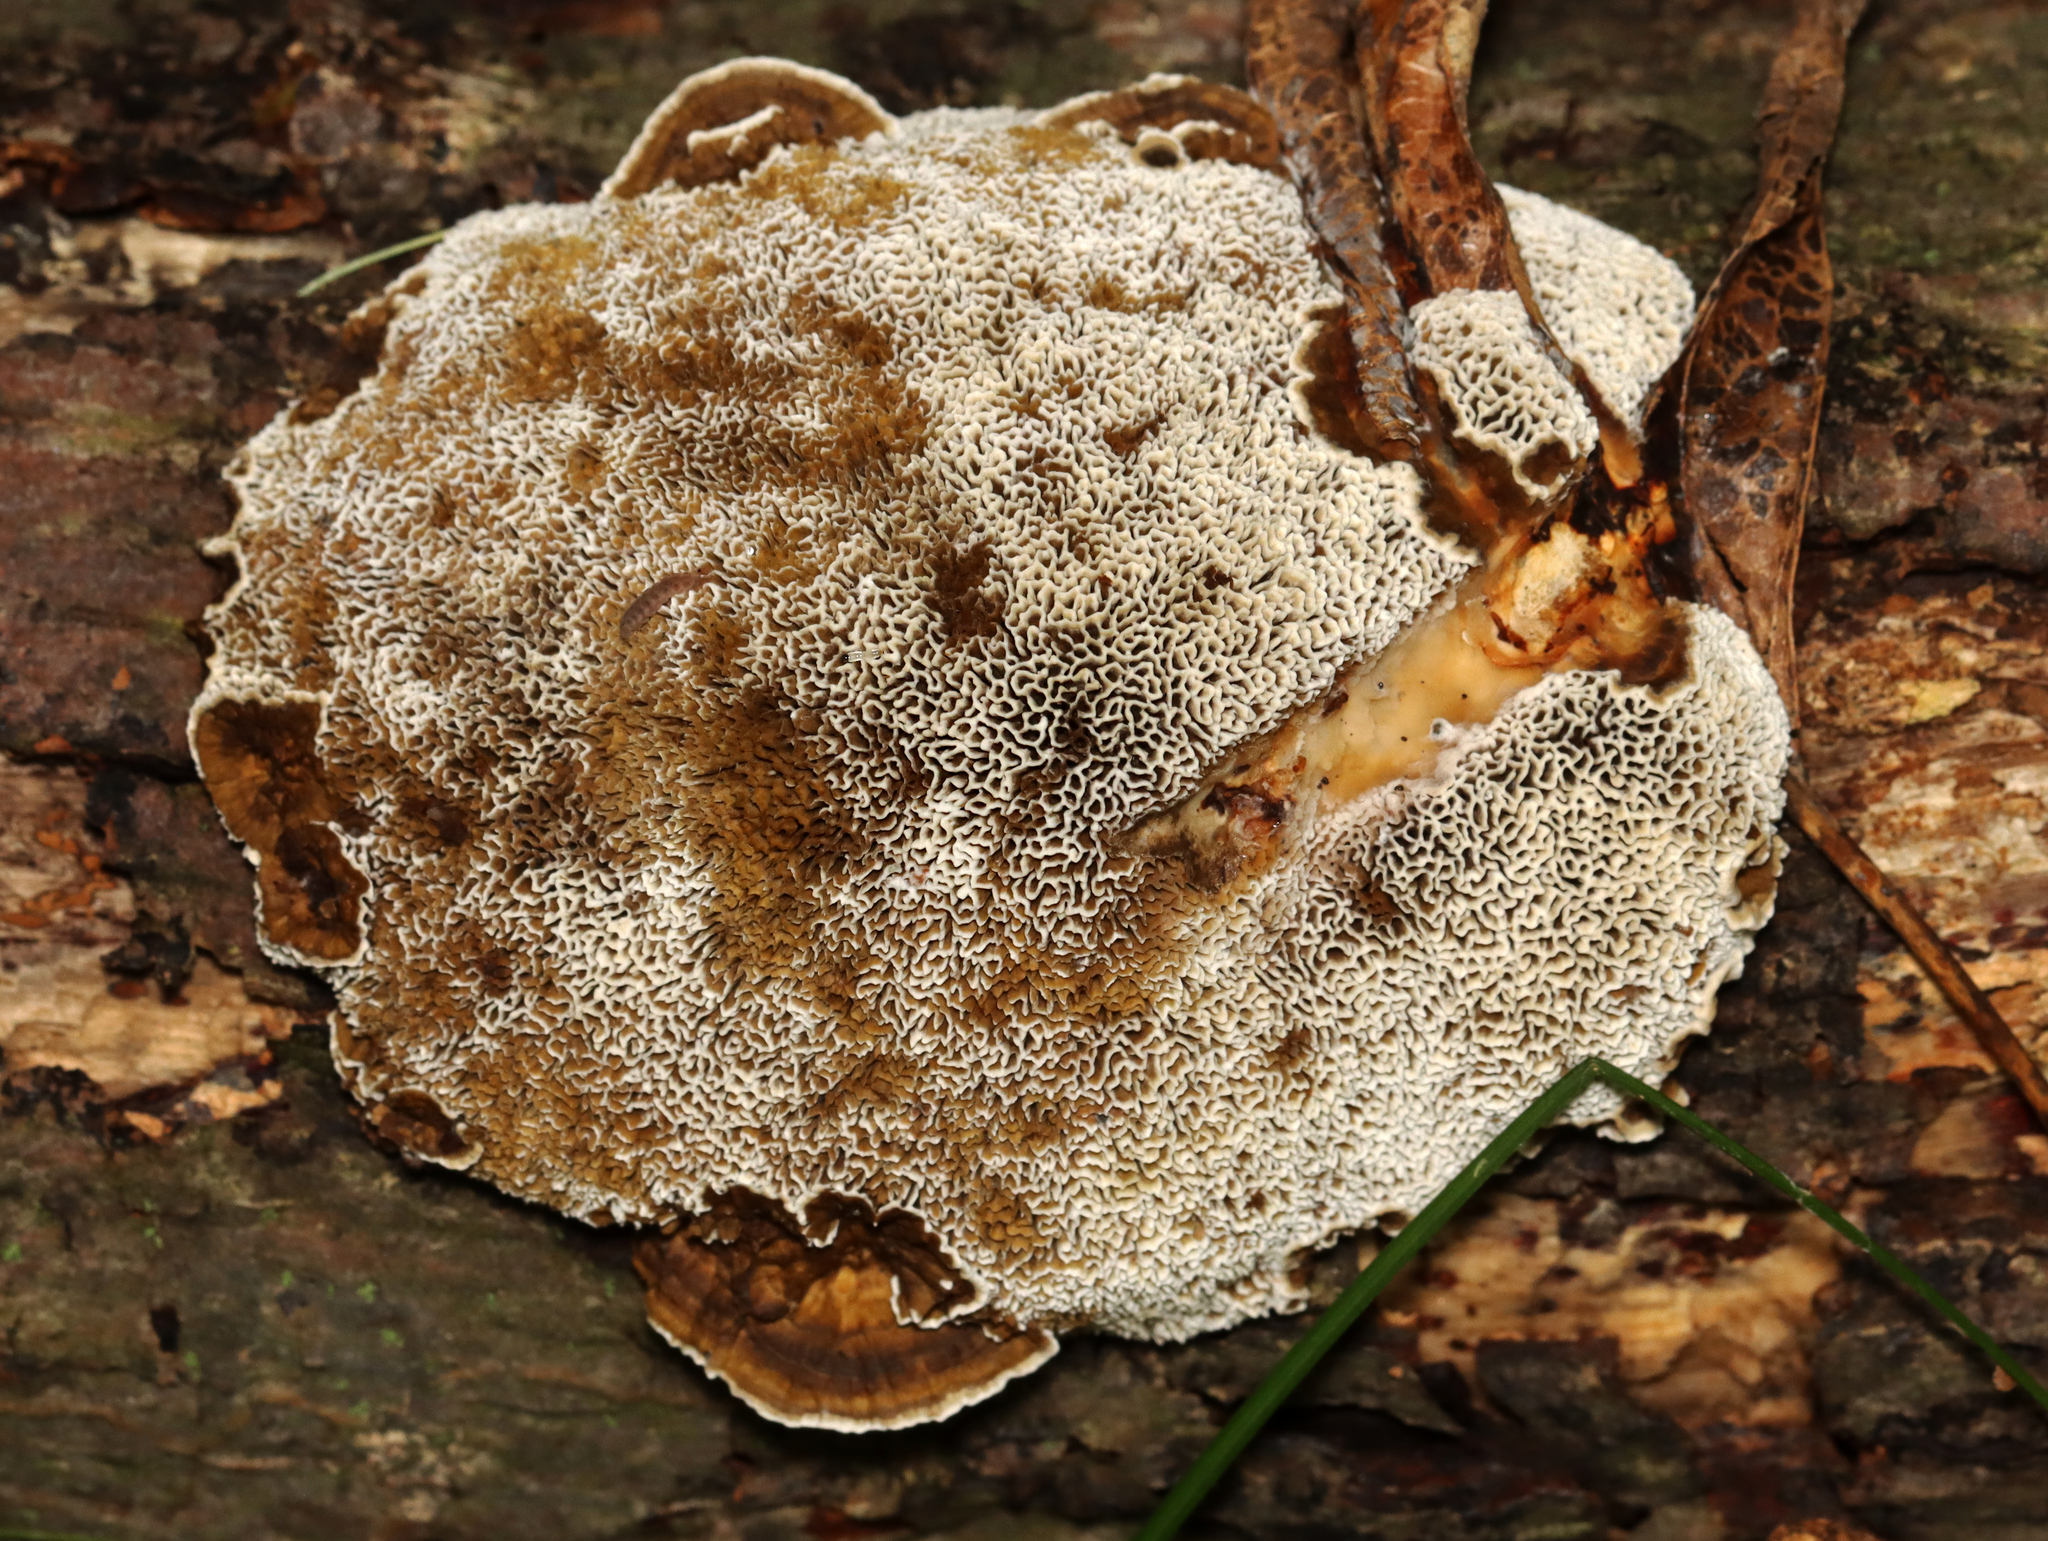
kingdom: Fungi
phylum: Basidiomycota
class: Agaricomycetes
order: Polyporales
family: Polyporaceae
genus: Daedaleopsis
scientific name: Daedaleopsis confragosa
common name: Blushing bracket
